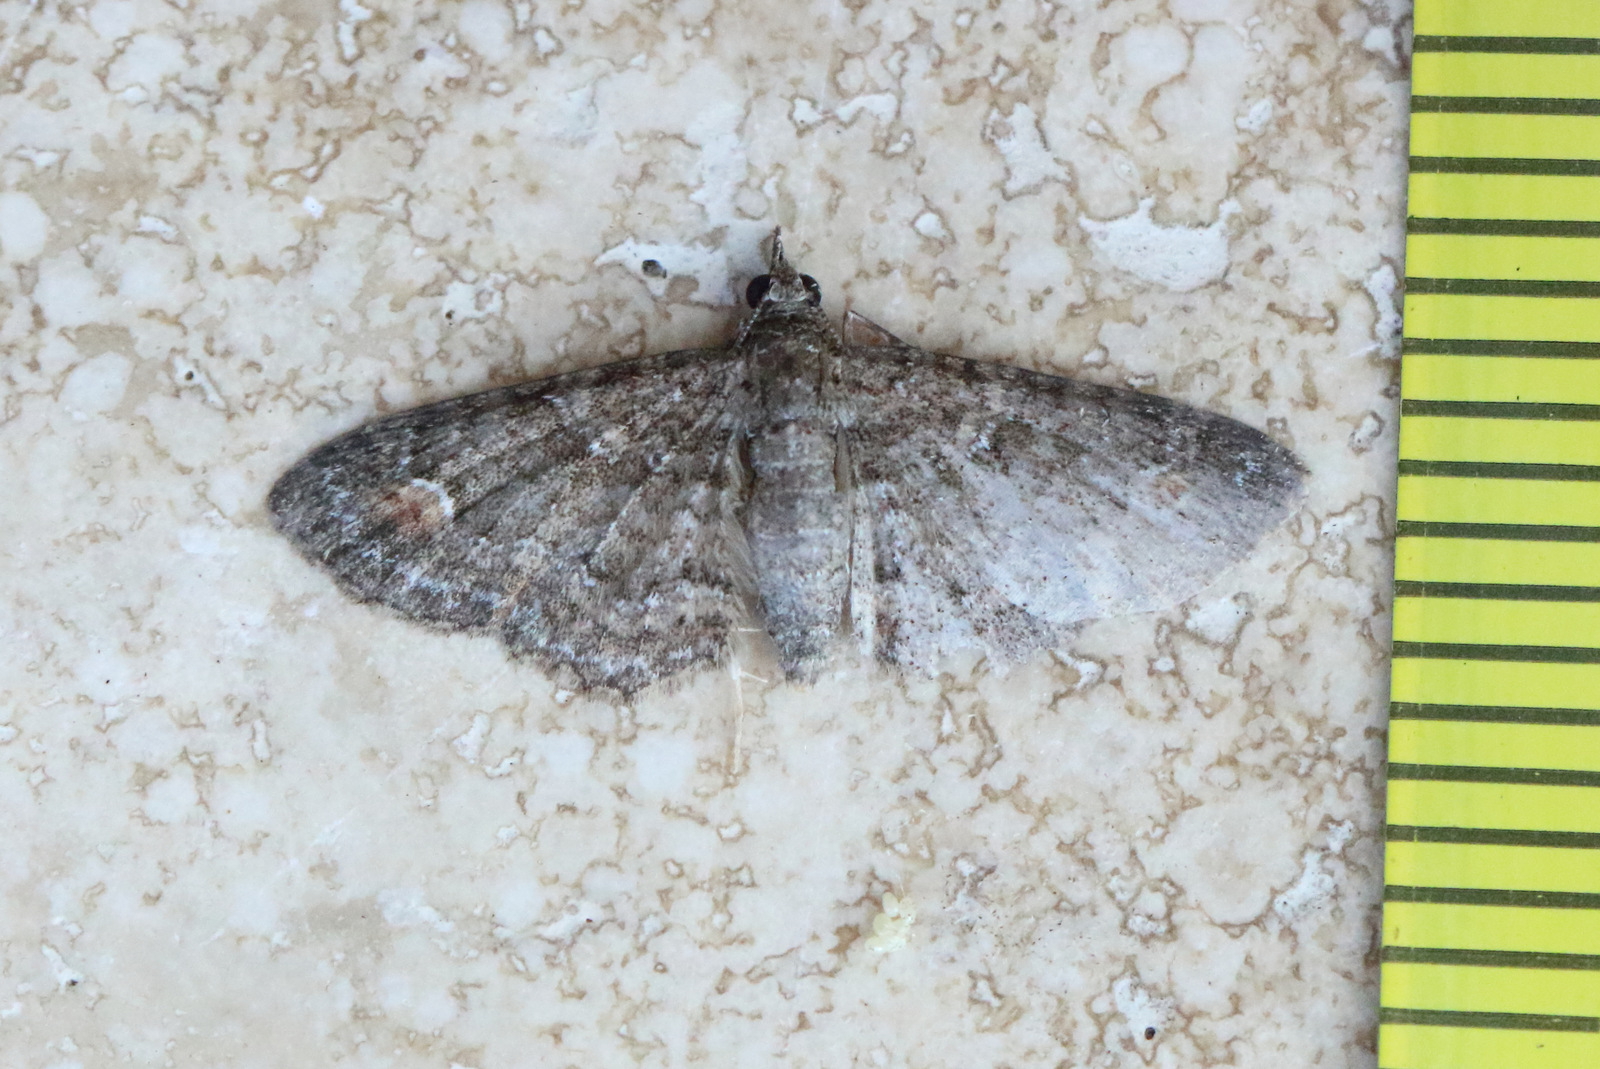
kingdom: Animalia
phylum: Arthropoda
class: Insecta
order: Lepidoptera
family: Geometridae
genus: Pasiphilodes
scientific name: Pasiphilodes testulata
